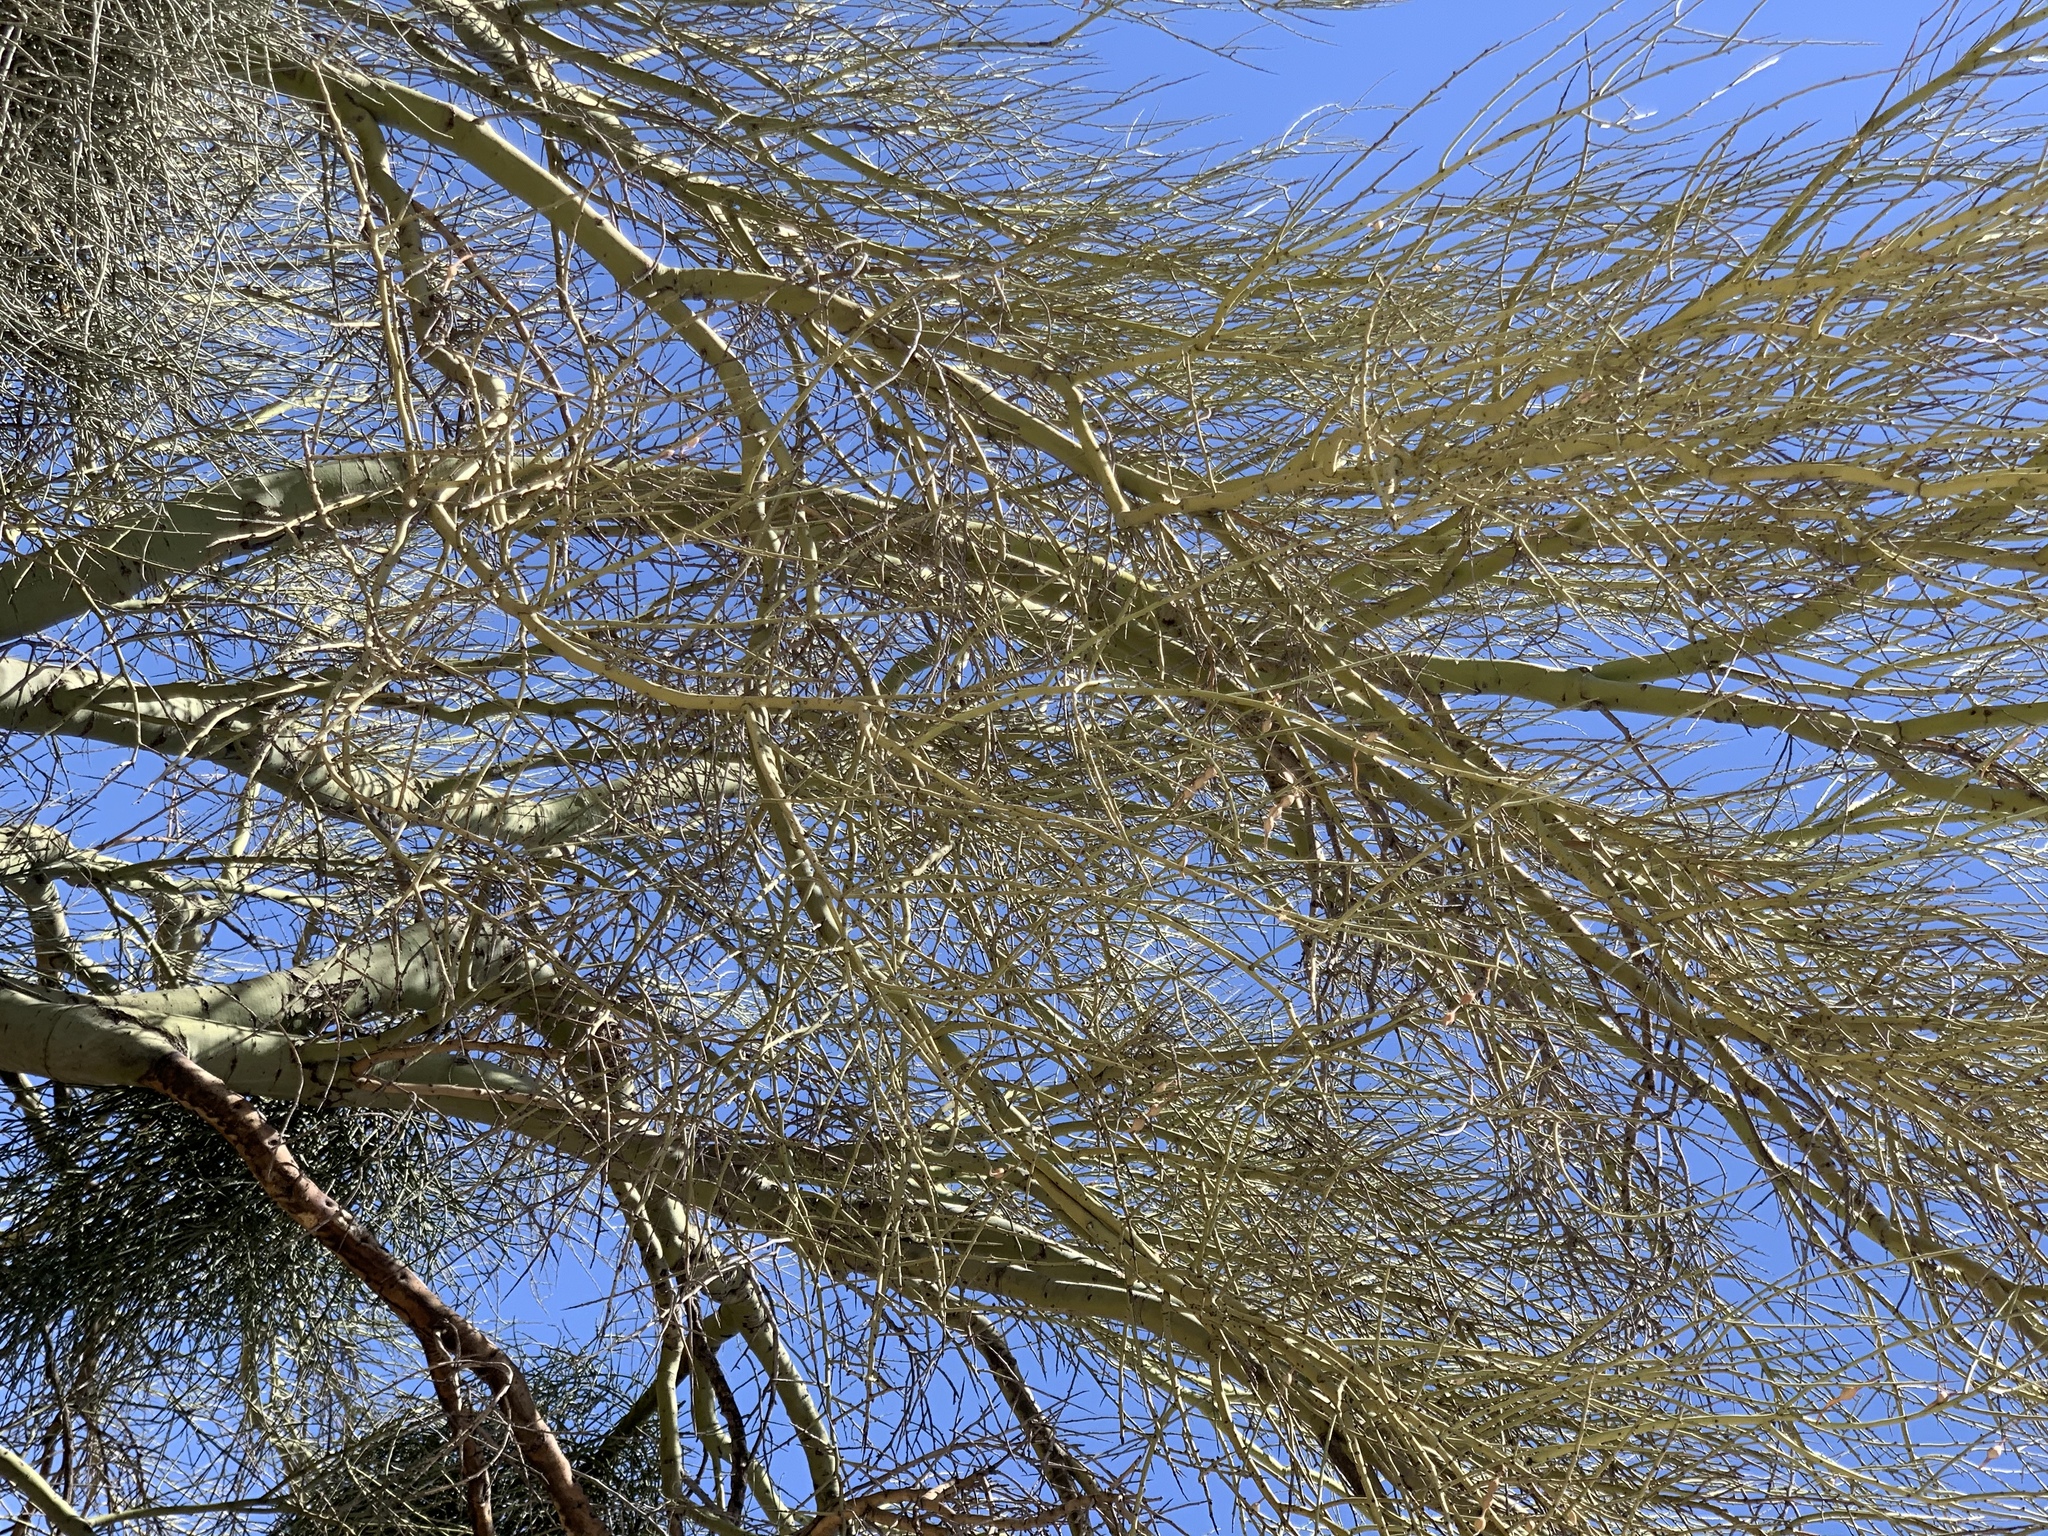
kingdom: Plantae
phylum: Tracheophyta
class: Magnoliopsida
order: Fabales
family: Fabaceae
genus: Parkinsonia
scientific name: Parkinsonia microphylla
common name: Yellow paloverde
